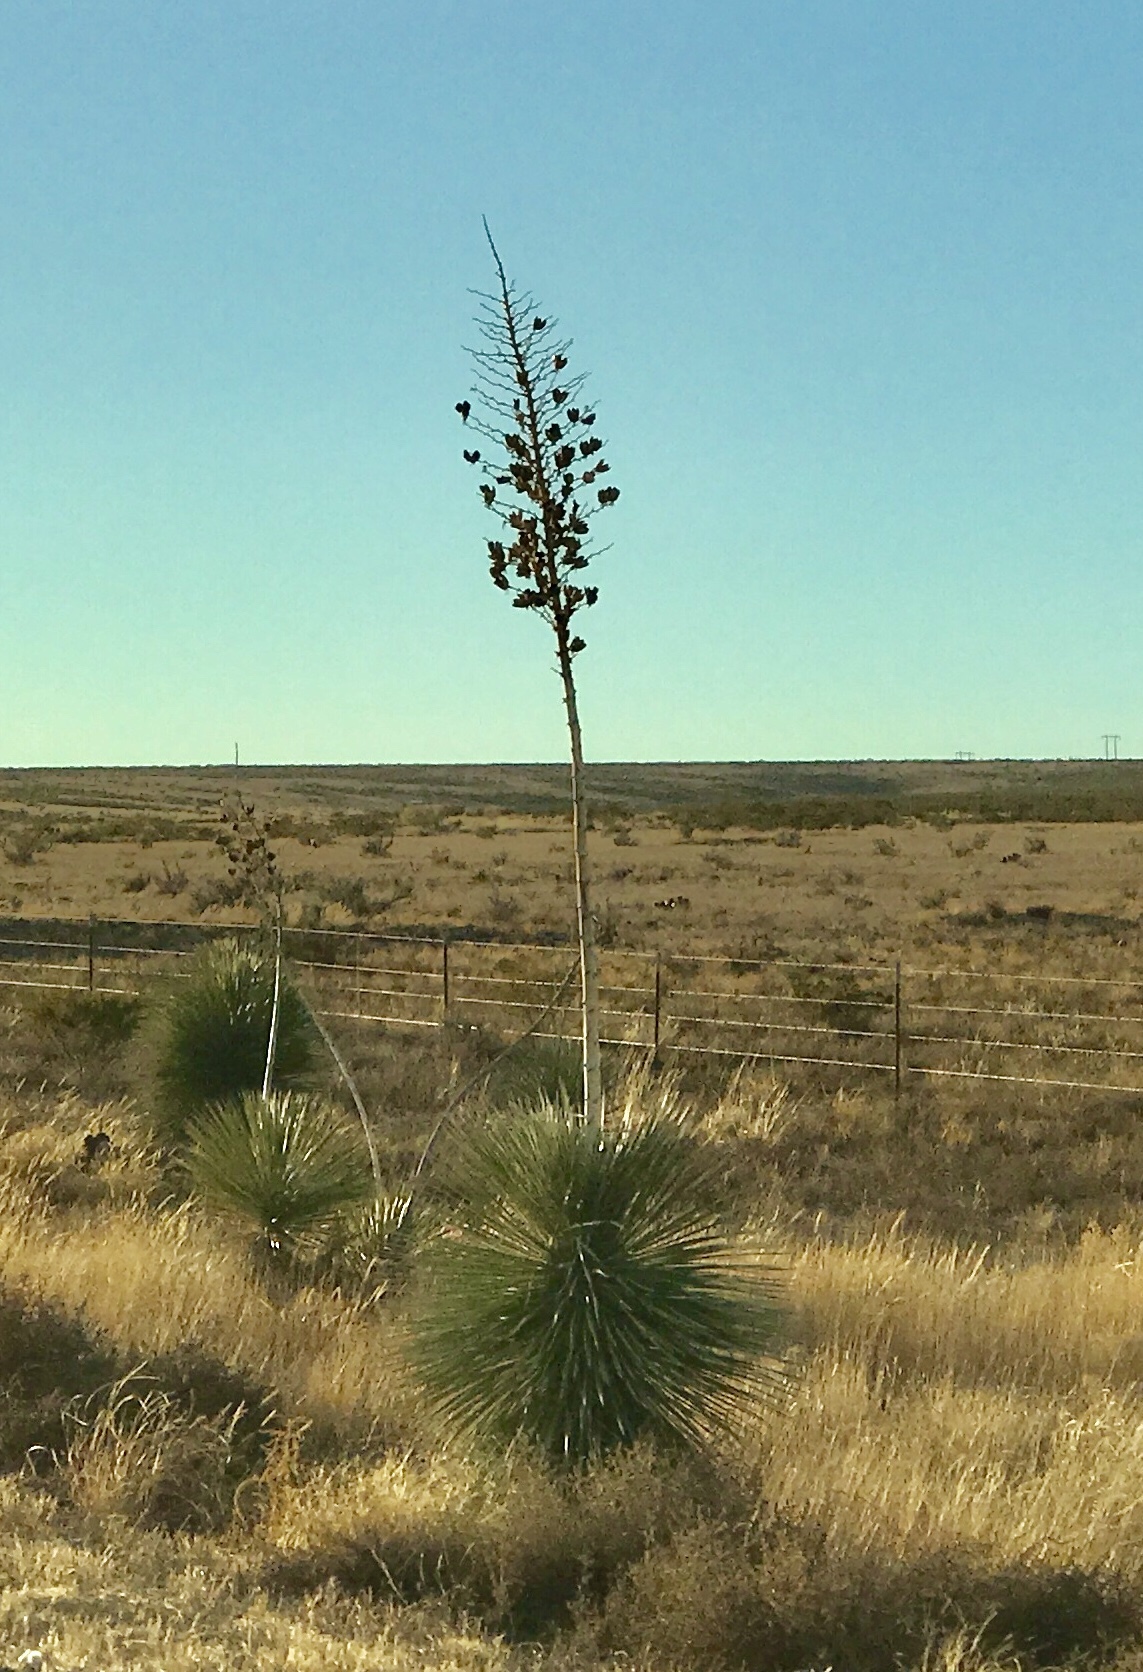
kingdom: Plantae
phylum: Tracheophyta
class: Liliopsida
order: Asparagales
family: Asparagaceae
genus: Yucca
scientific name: Yucca elata
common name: Palmella
